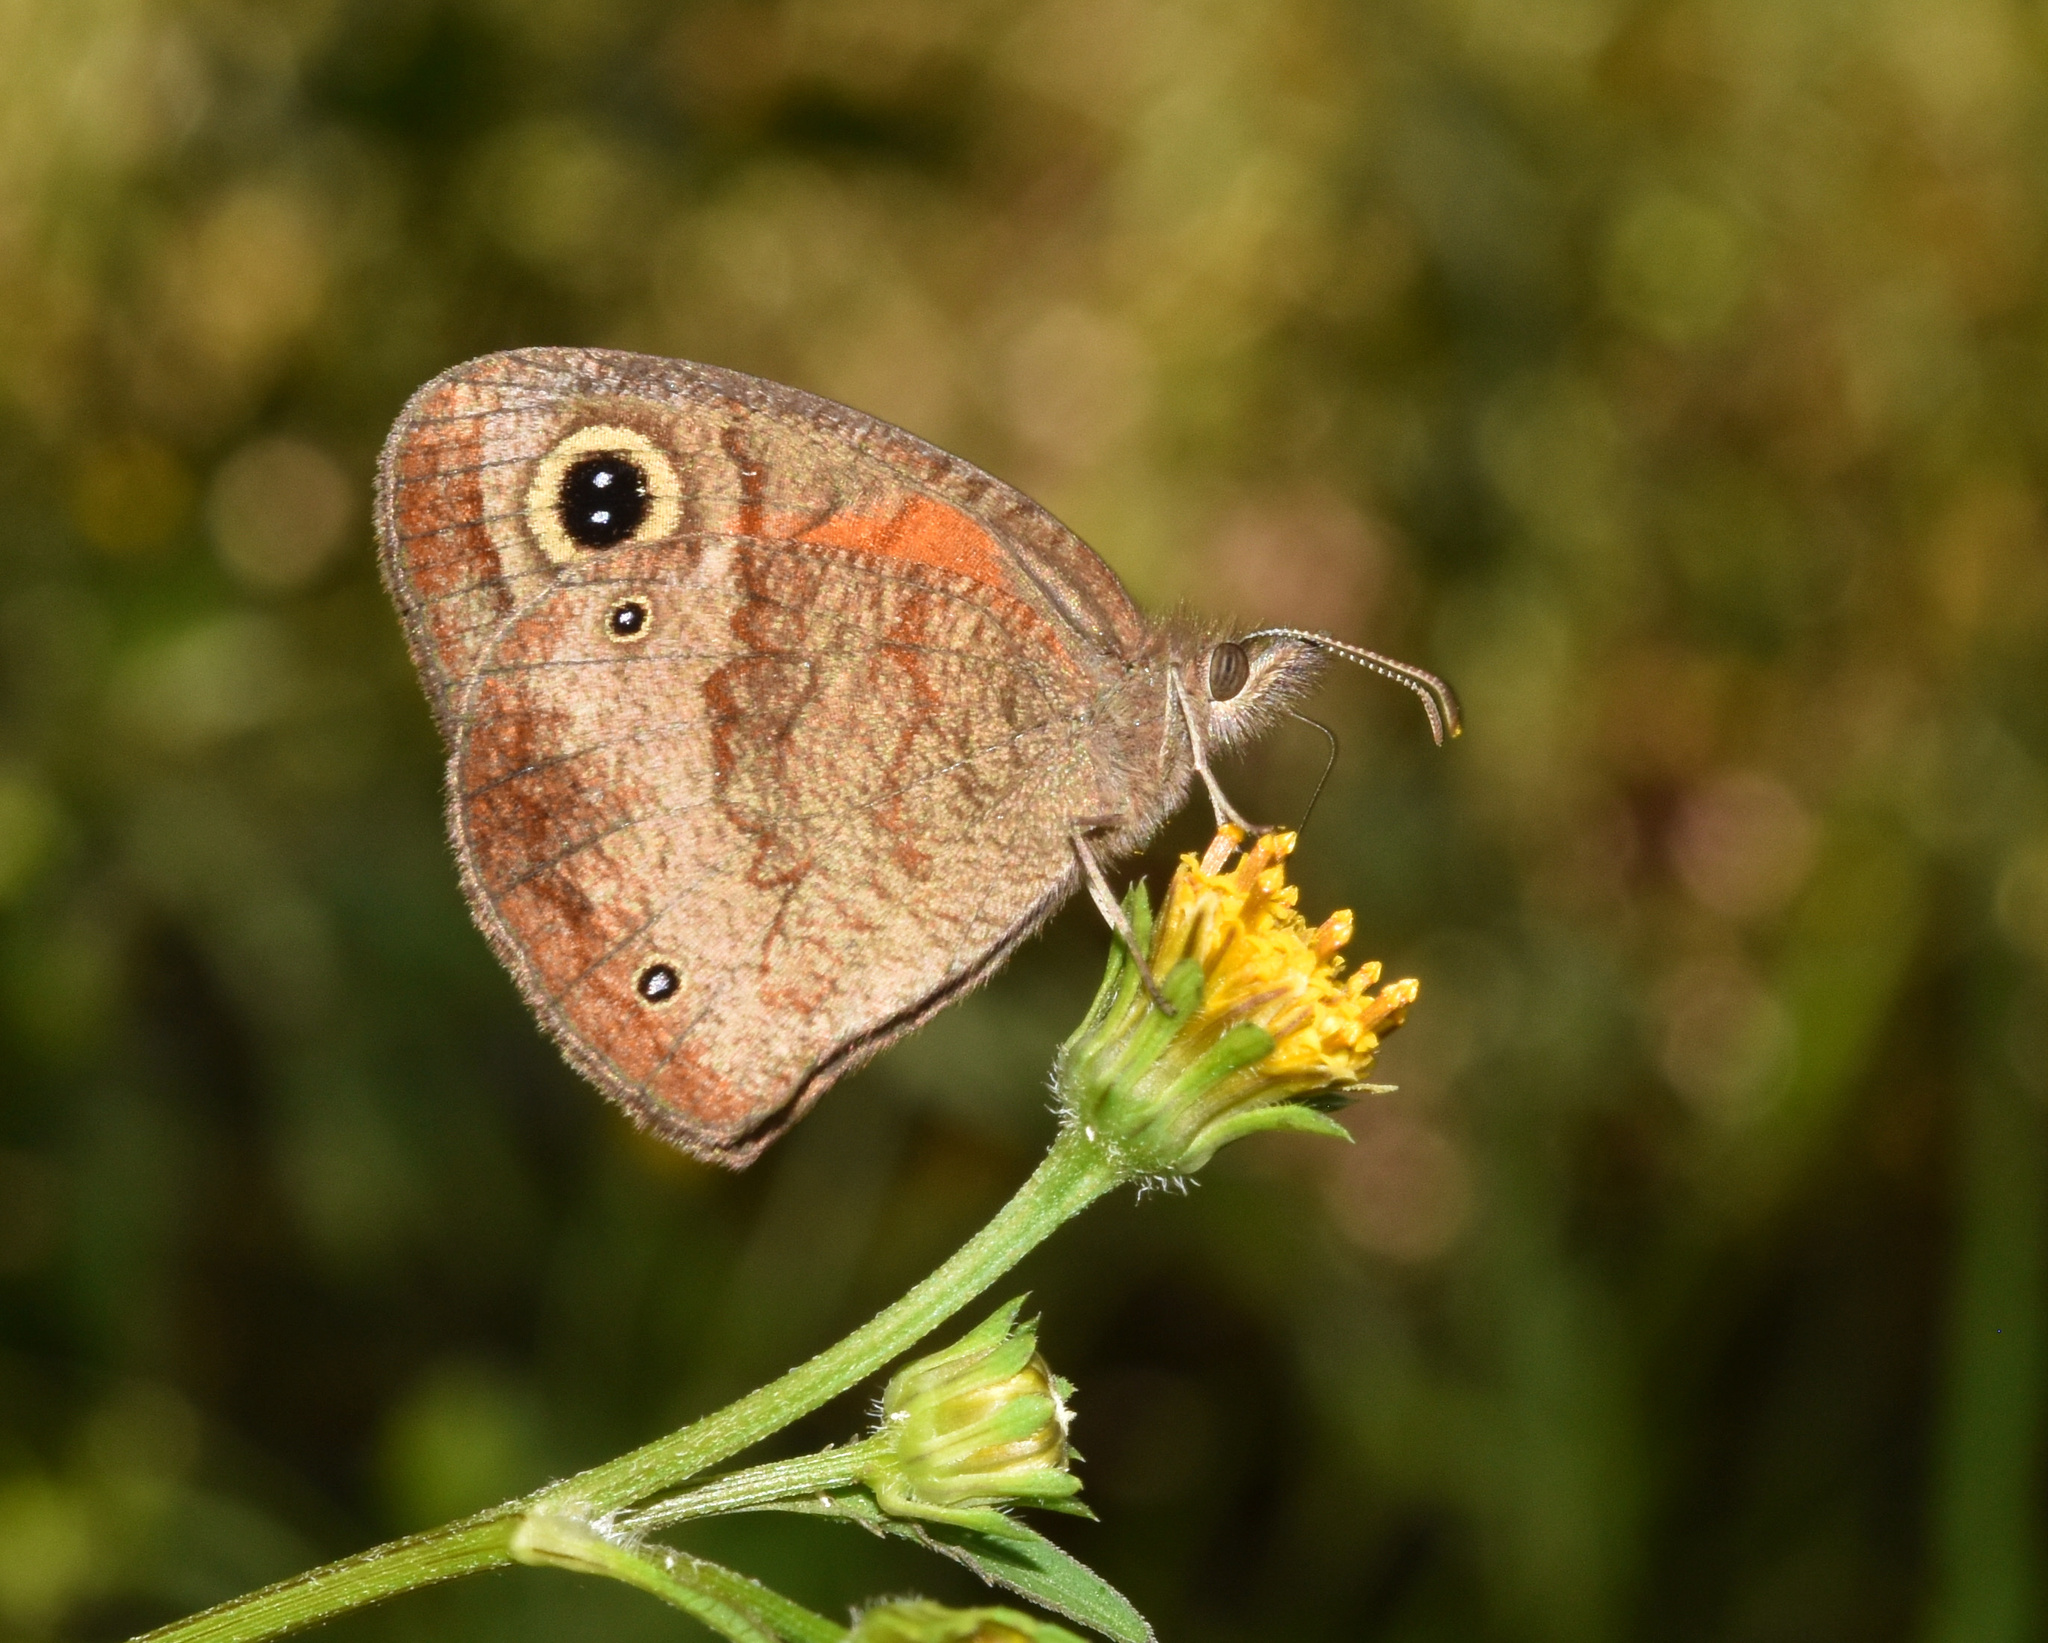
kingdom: Animalia
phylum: Arthropoda
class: Insecta
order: Lepidoptera
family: Nymphalidae
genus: Cassionympha
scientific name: Cassionympha cassius
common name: Rainforest brown
